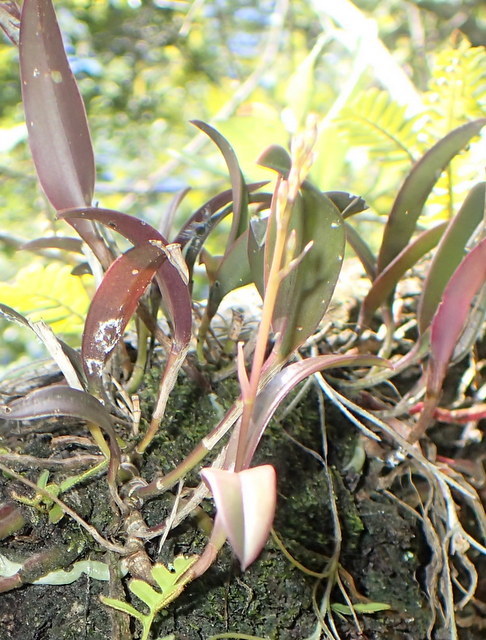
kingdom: Plantae
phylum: Tracheophyta
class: Liliopsida
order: Asparagales
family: Orchidaceae
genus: Epidendrum
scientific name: Epidendrum conopseum
